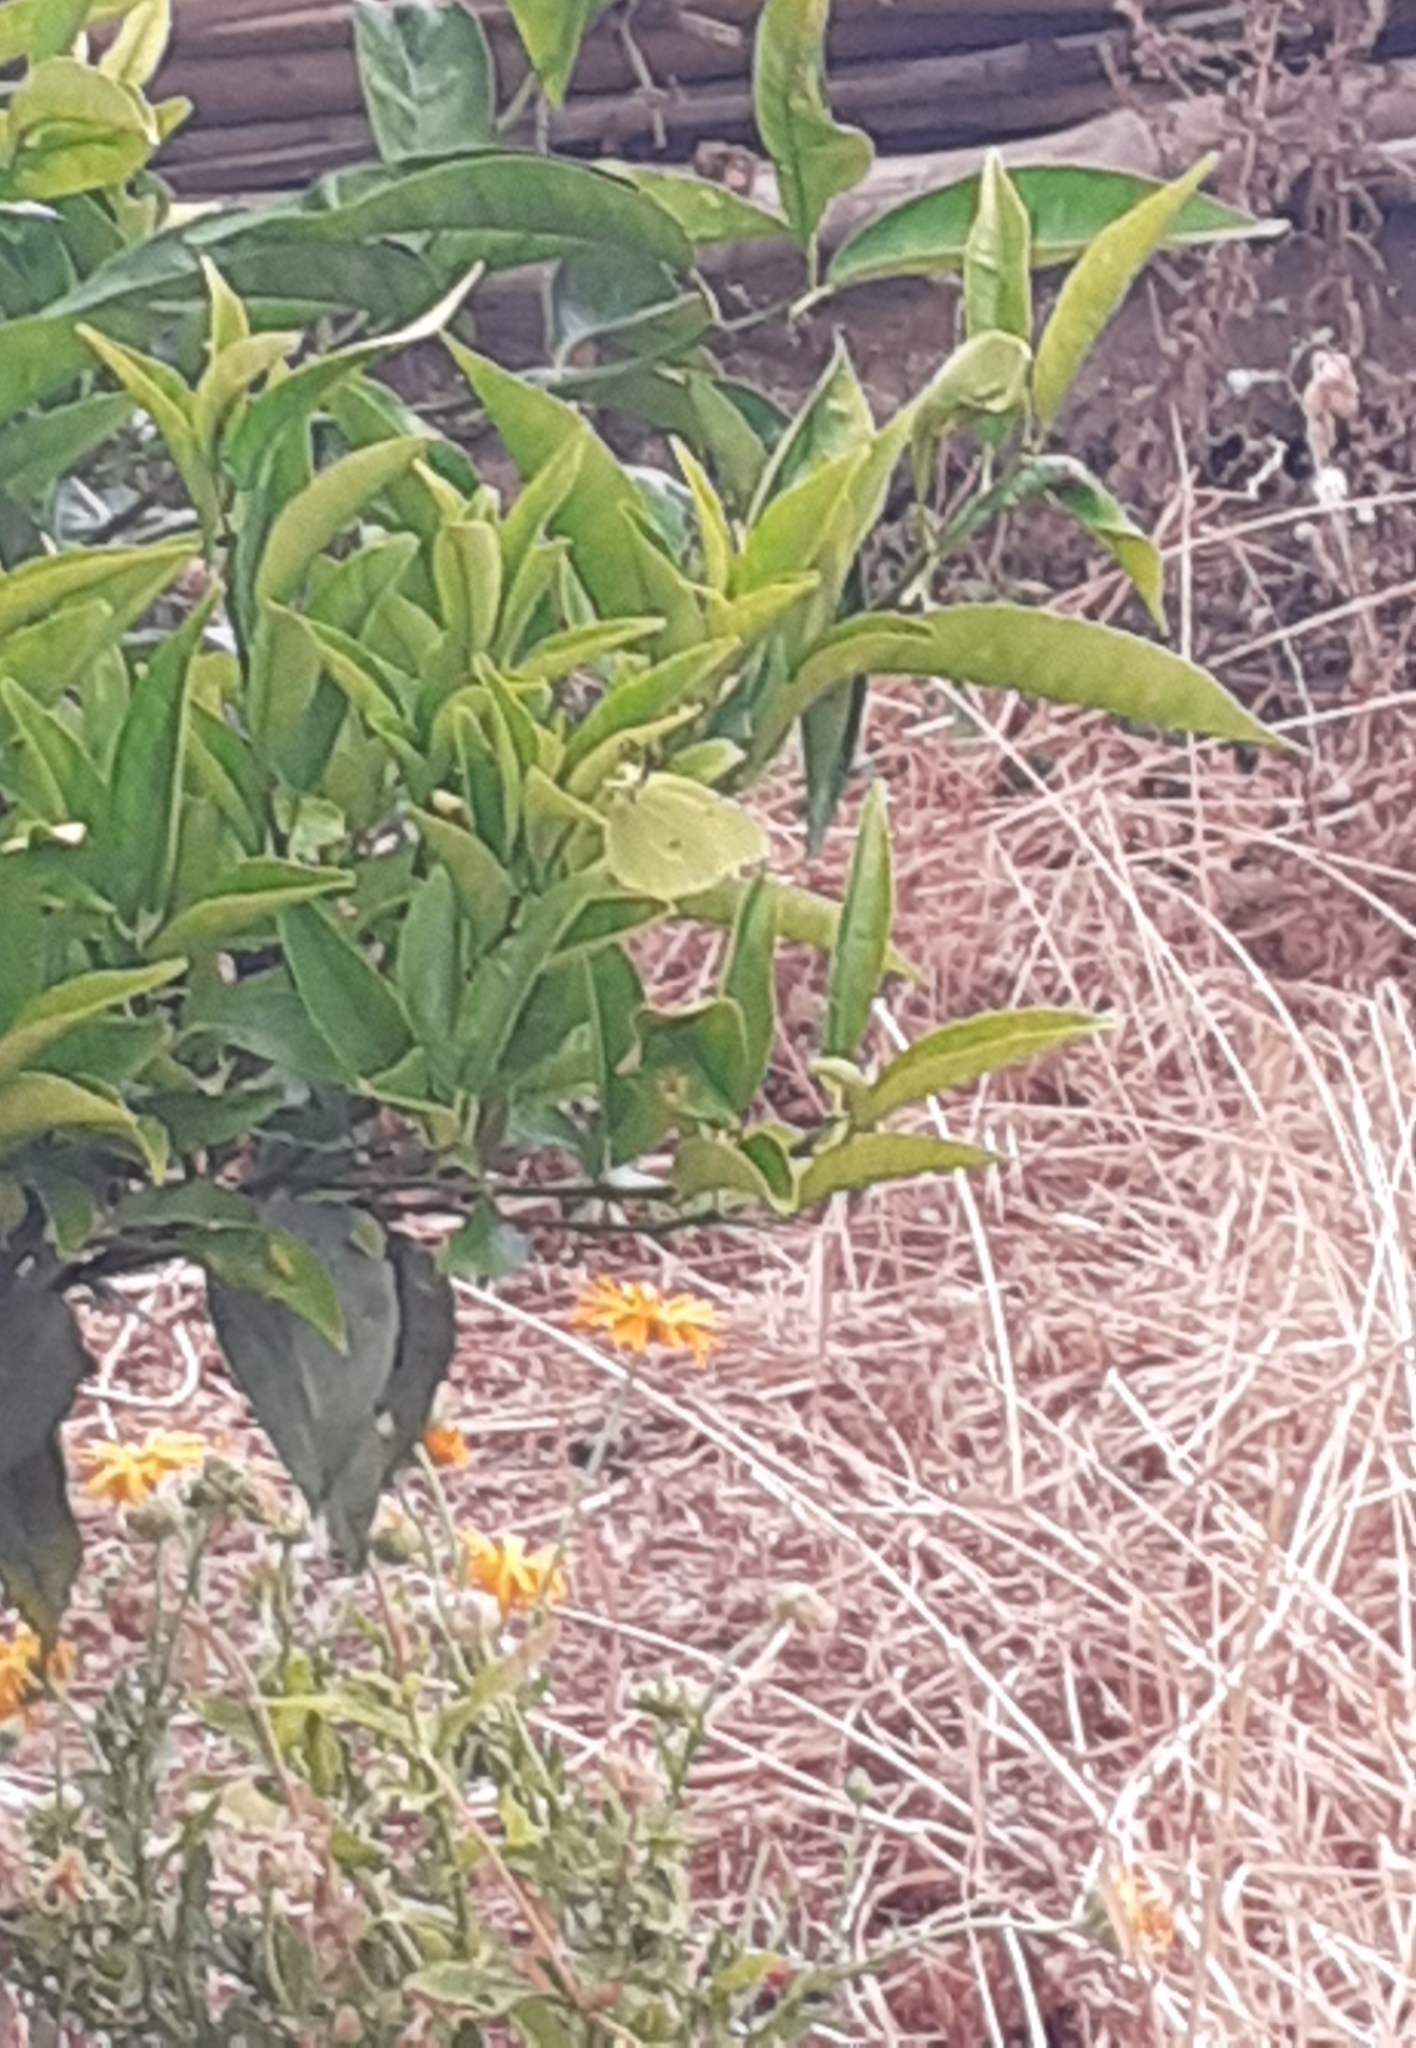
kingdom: Animalia
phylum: Arthropoda
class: Insecta
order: Lepidoptera
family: Pieridae
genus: Gonepteryx
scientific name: Gonepteryx cleobule
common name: Canary brimstone
